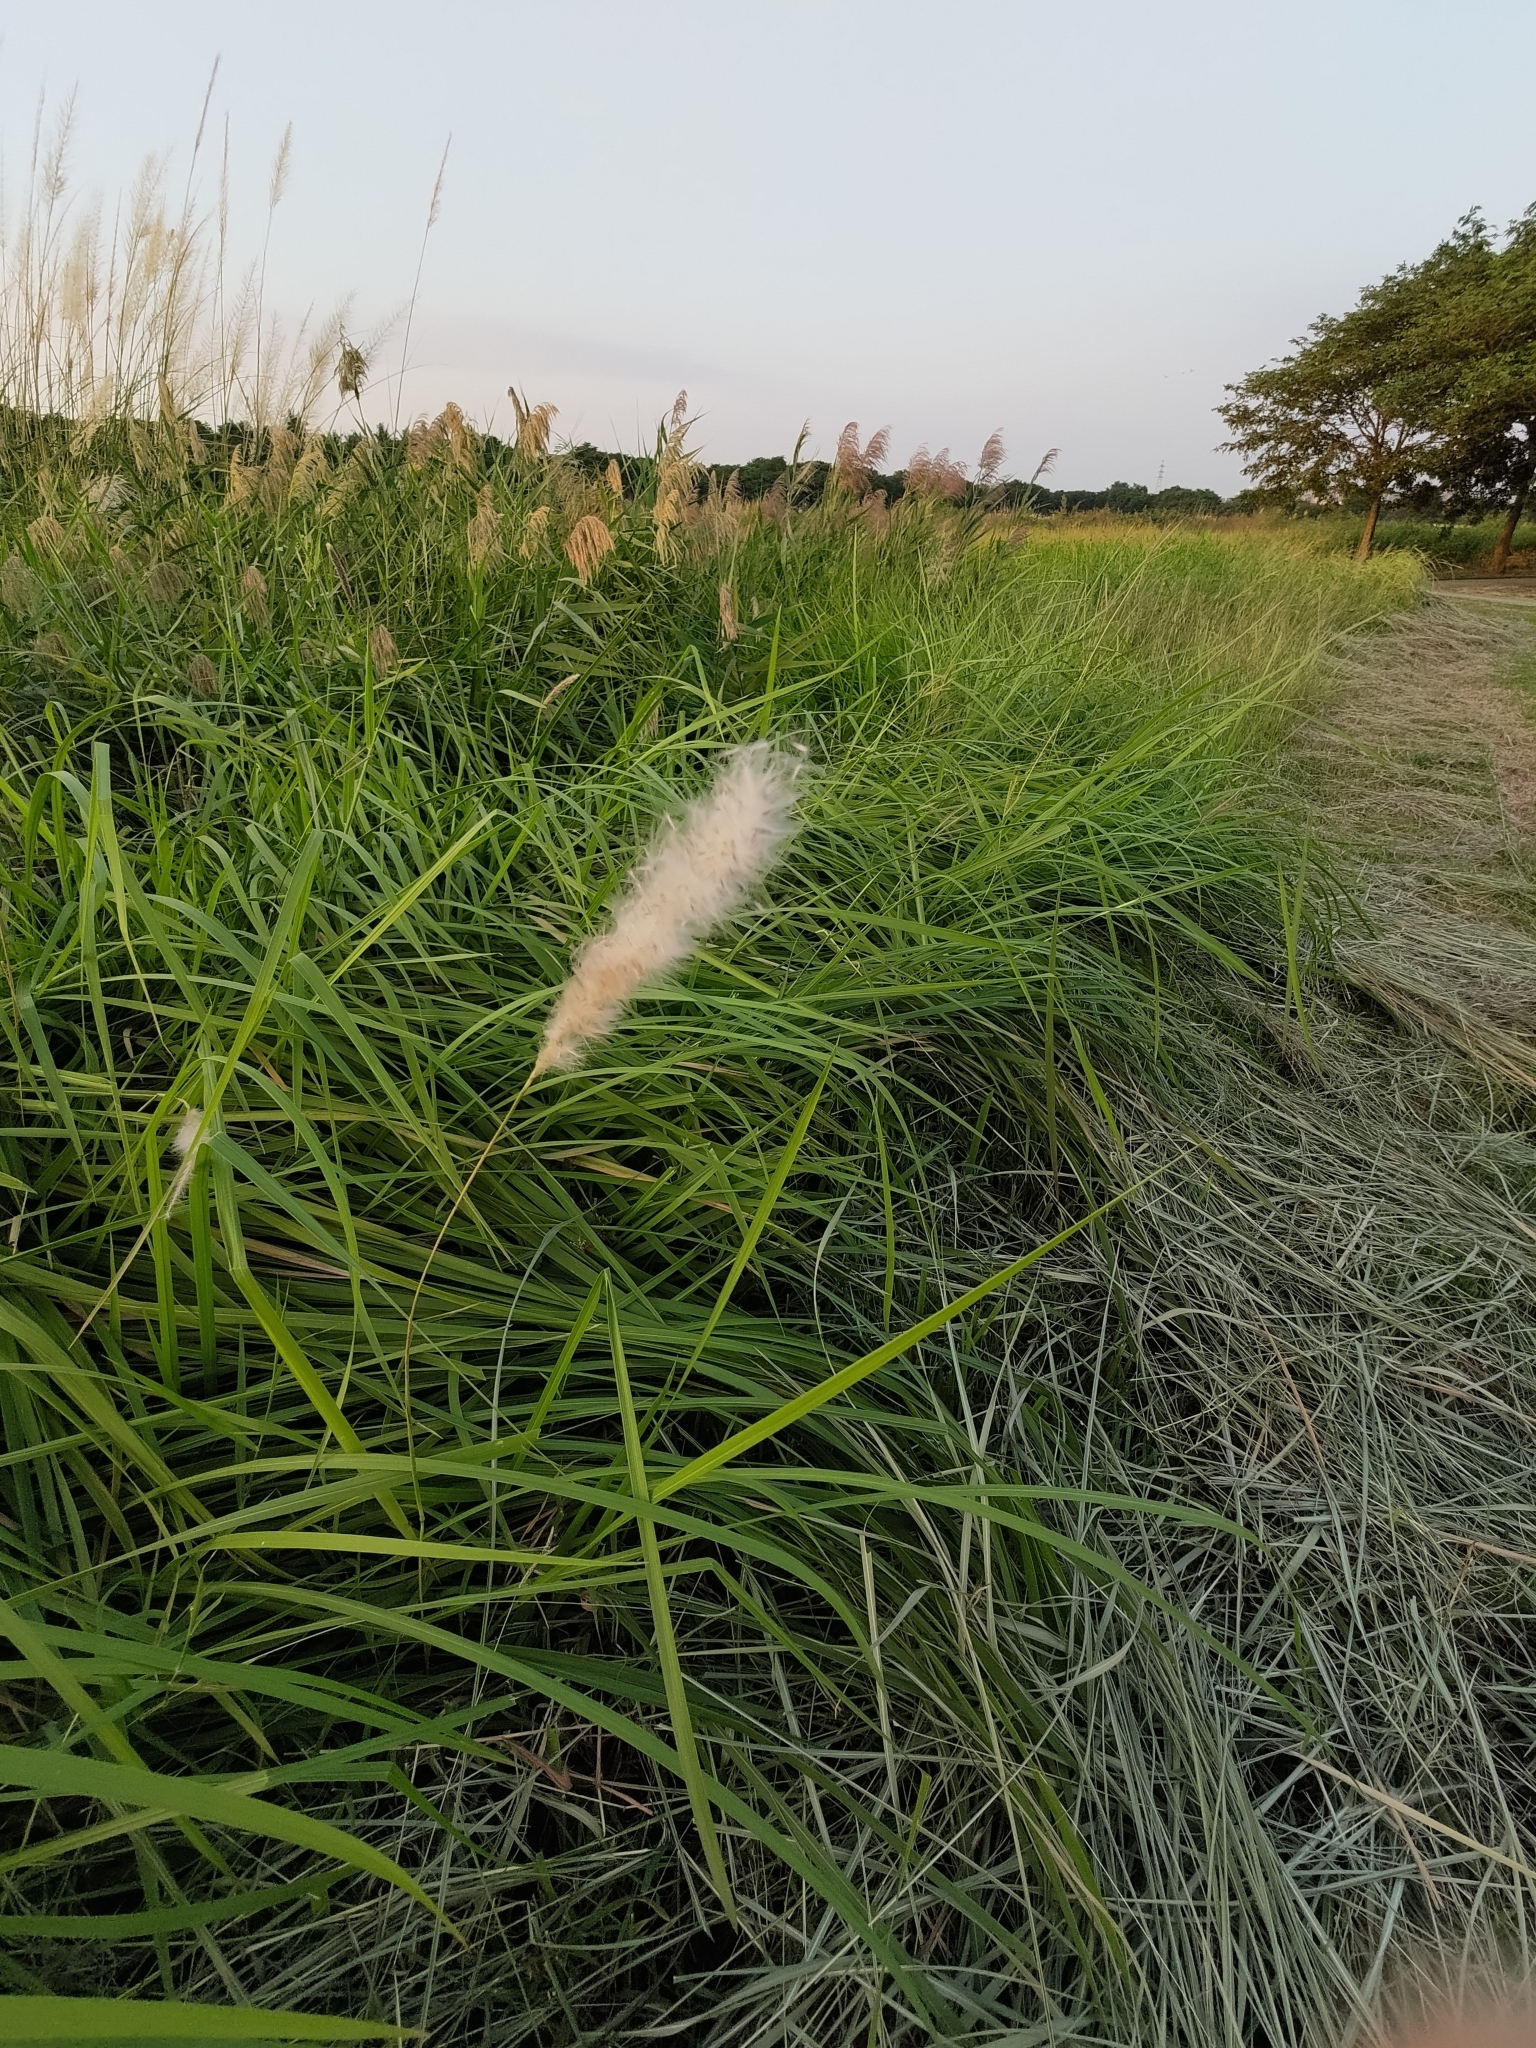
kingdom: Plantae
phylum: Tracheophyta
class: Liliopsida
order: Poales
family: Poaceae
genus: Imperata
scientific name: Imperata cylindrica
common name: Cogongrass
